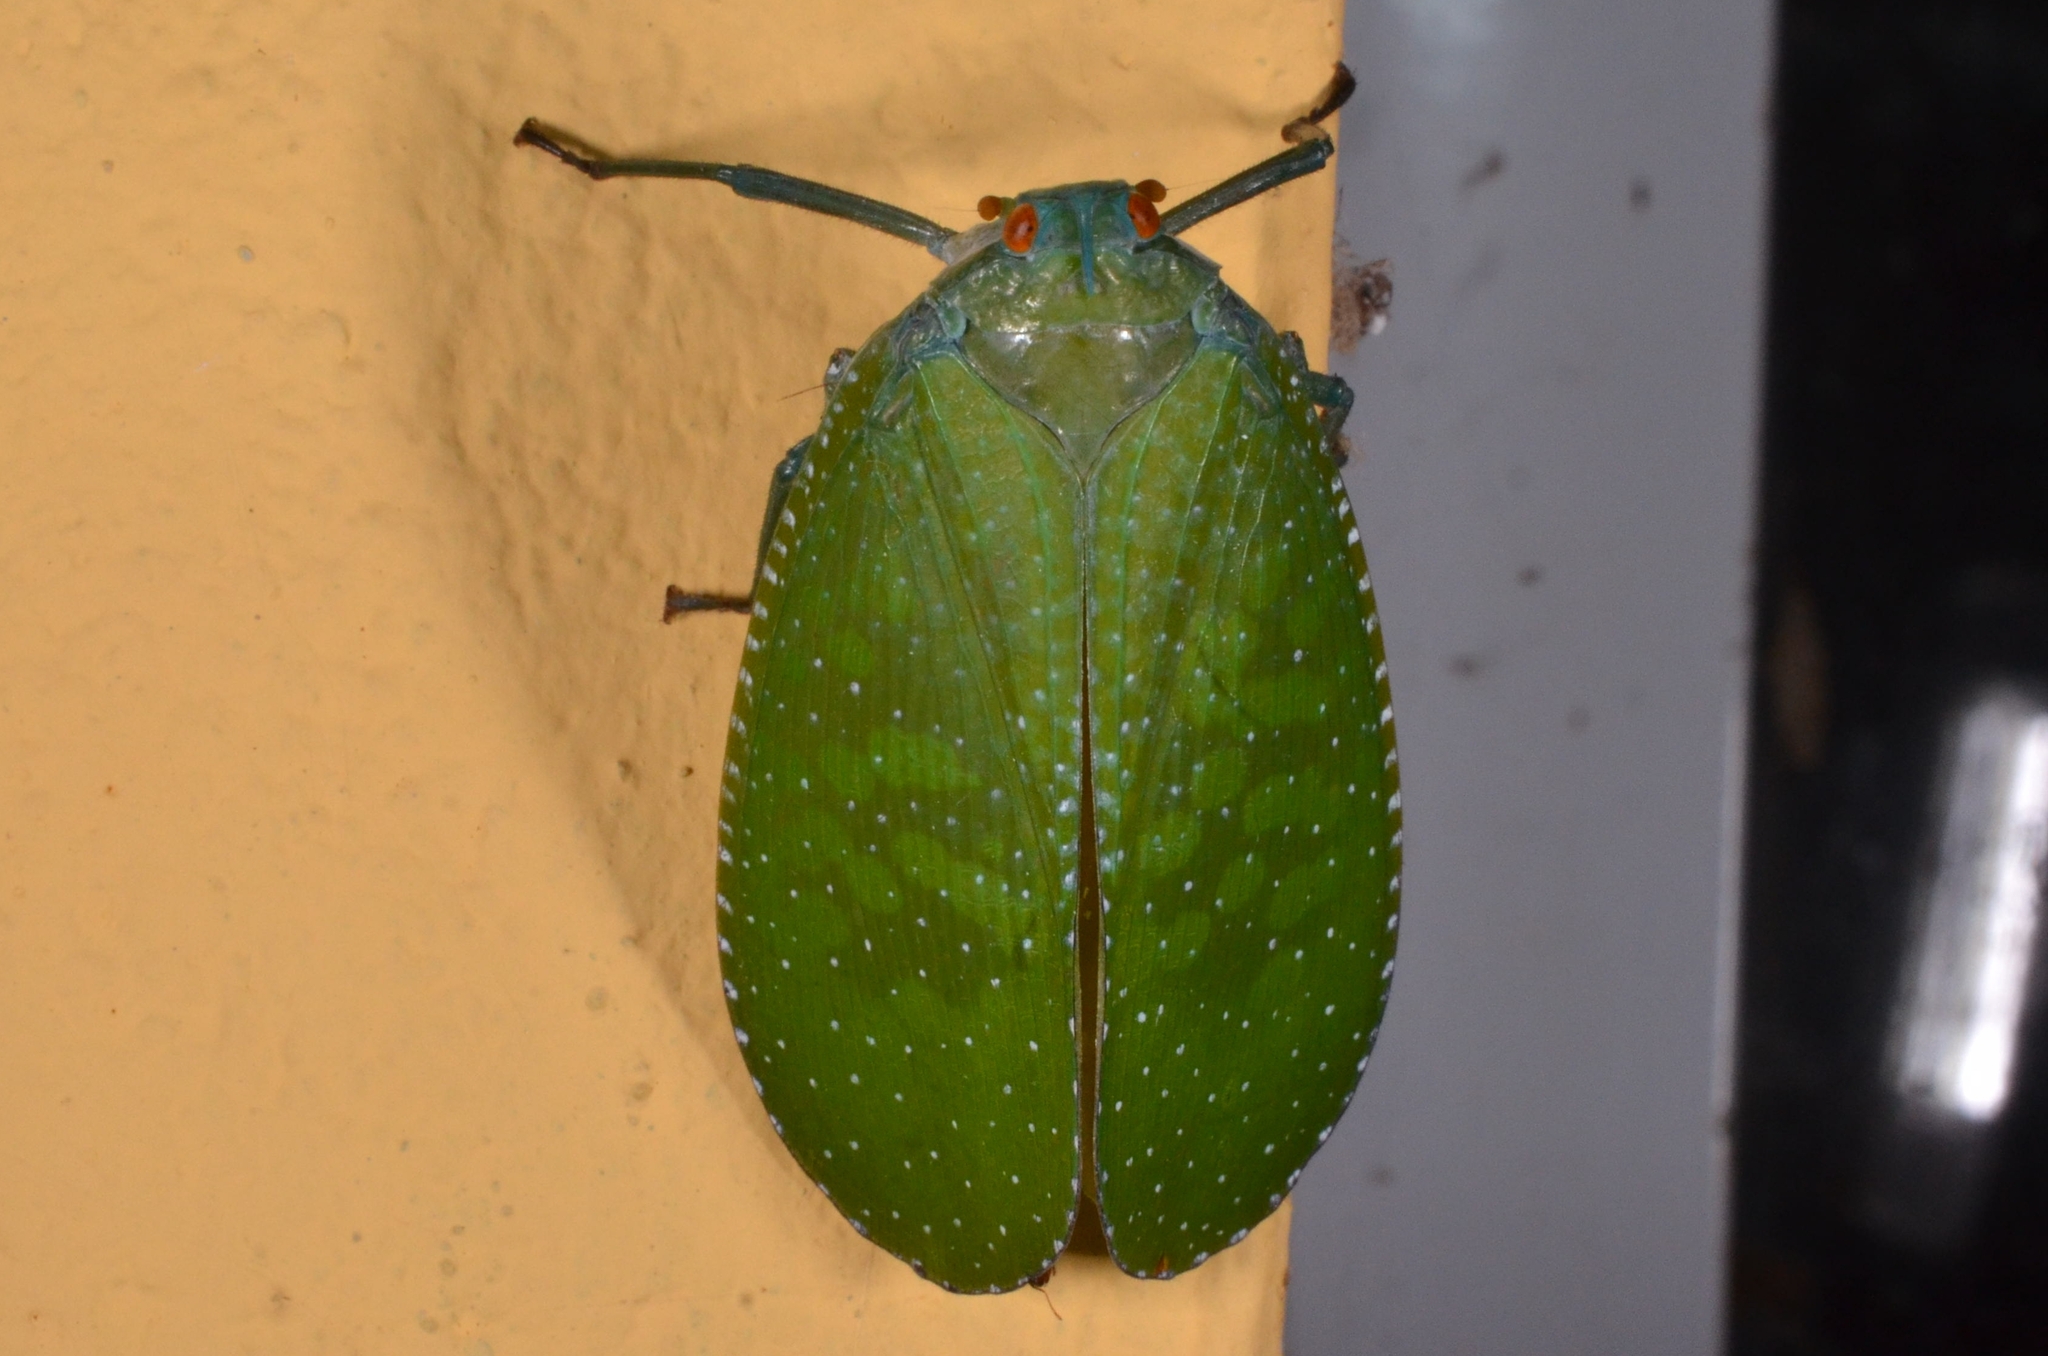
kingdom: Animalia
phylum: Arthropoda
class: Insecta
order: Hemiptera
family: Fulgoridae
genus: Aphaena
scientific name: Aphaena aurantia
